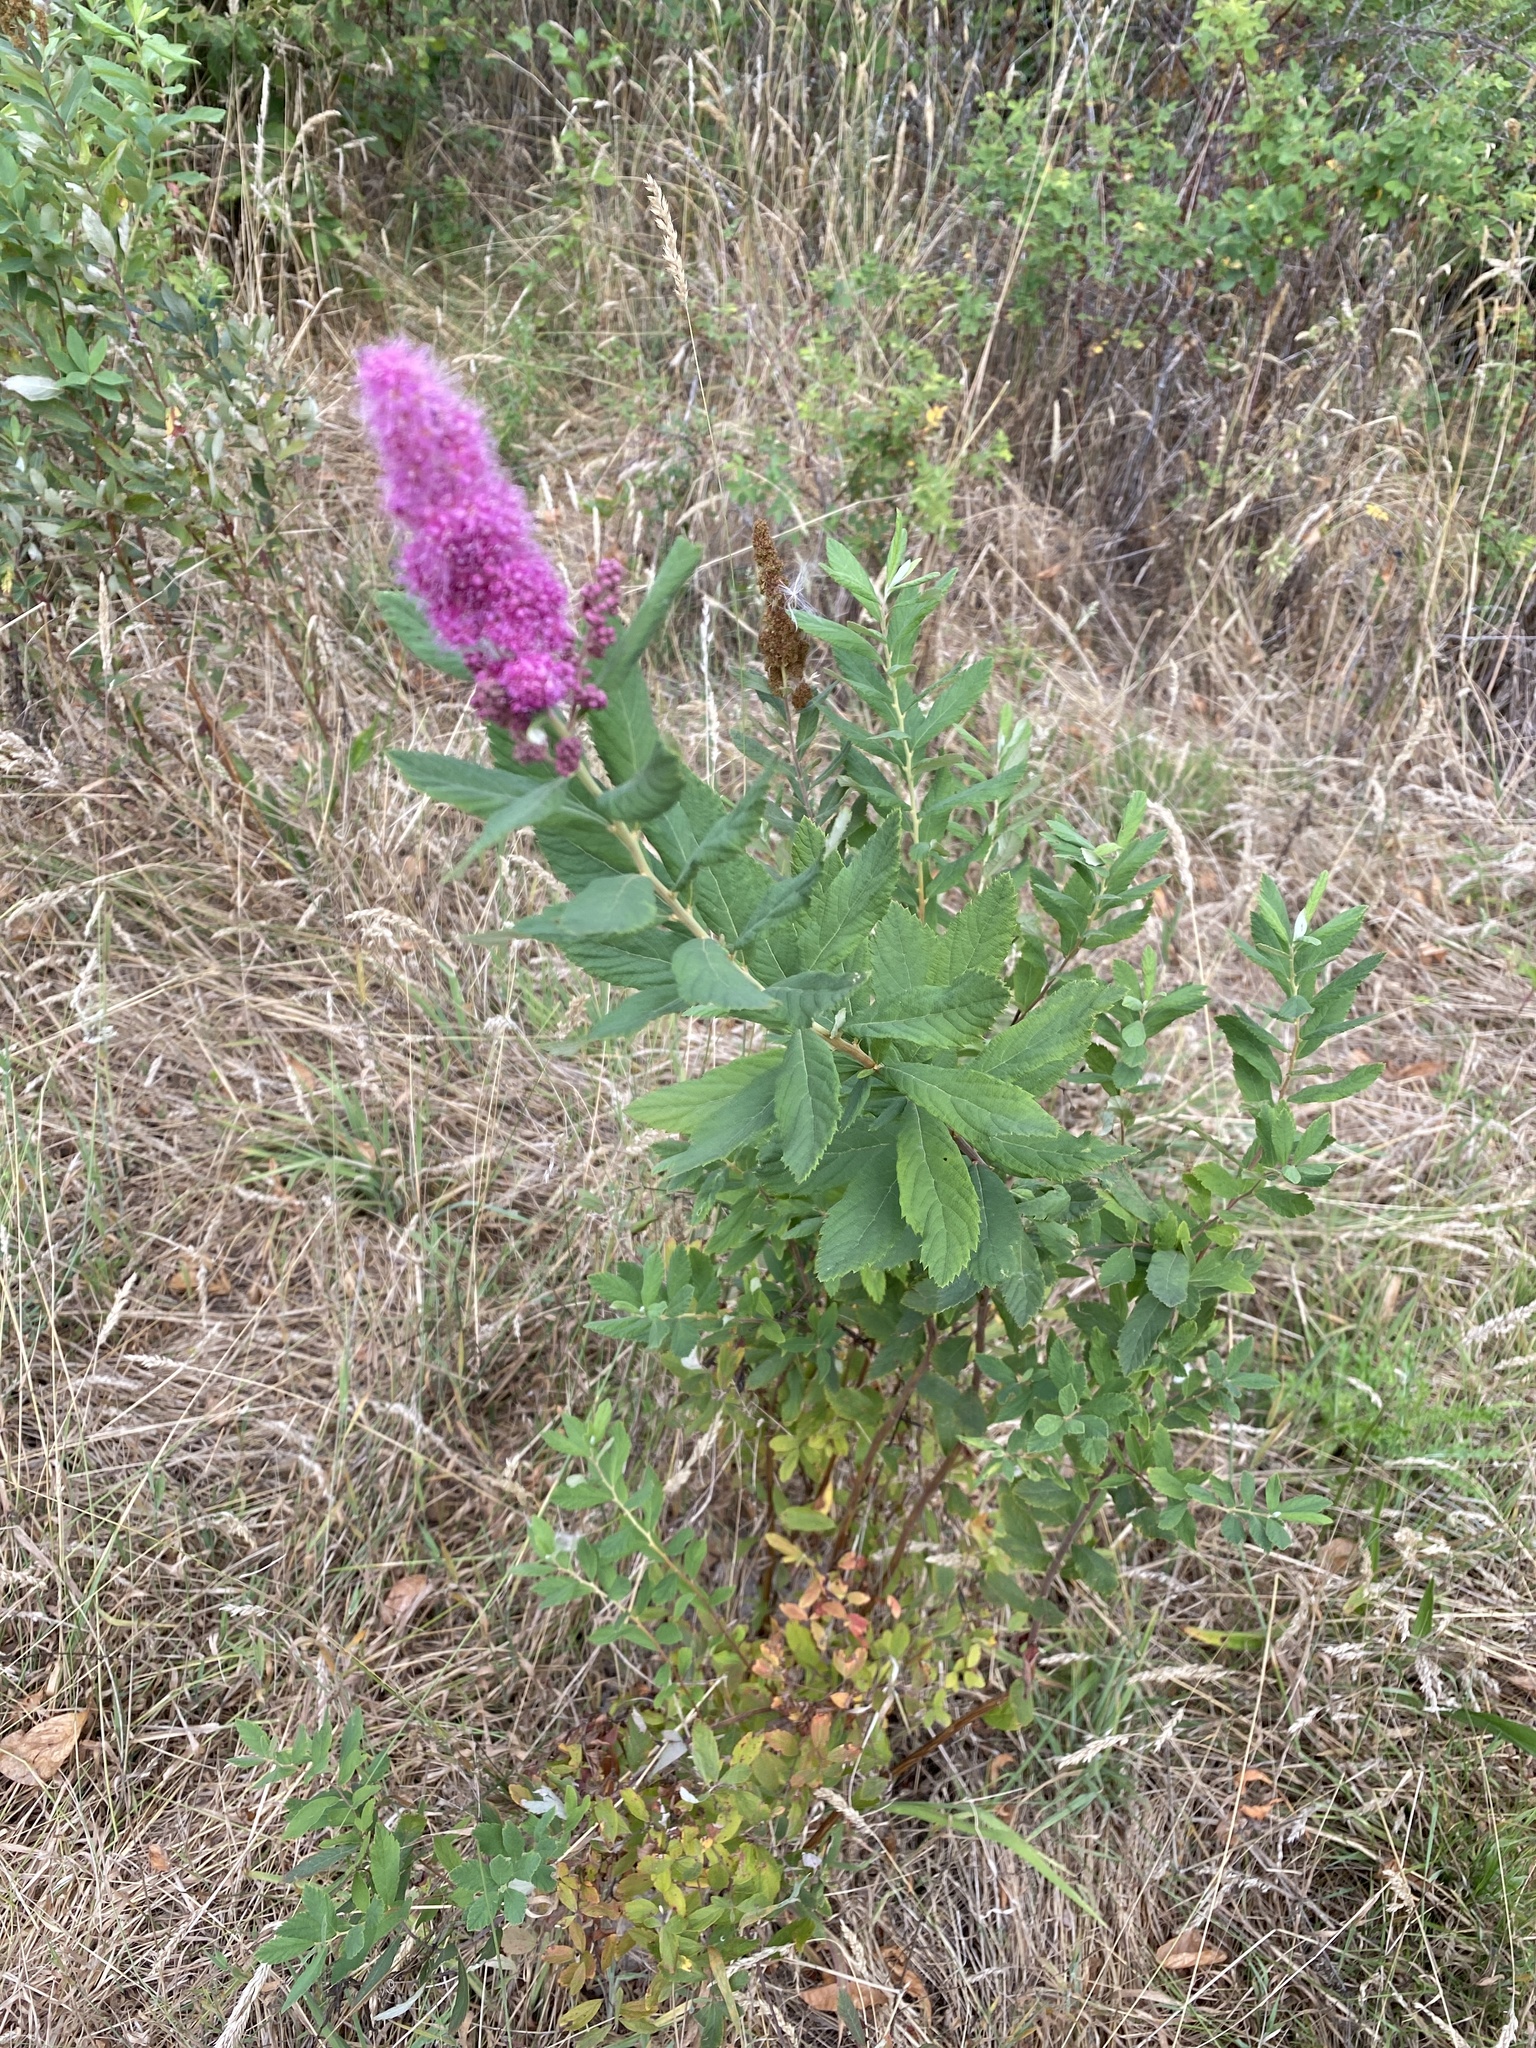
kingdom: Plantae
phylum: Tracheophyta
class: Magnoliopsida
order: Rosales
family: Rosaceae
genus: Spiraea
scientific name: Spiraea douglasii
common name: Steeplebush
